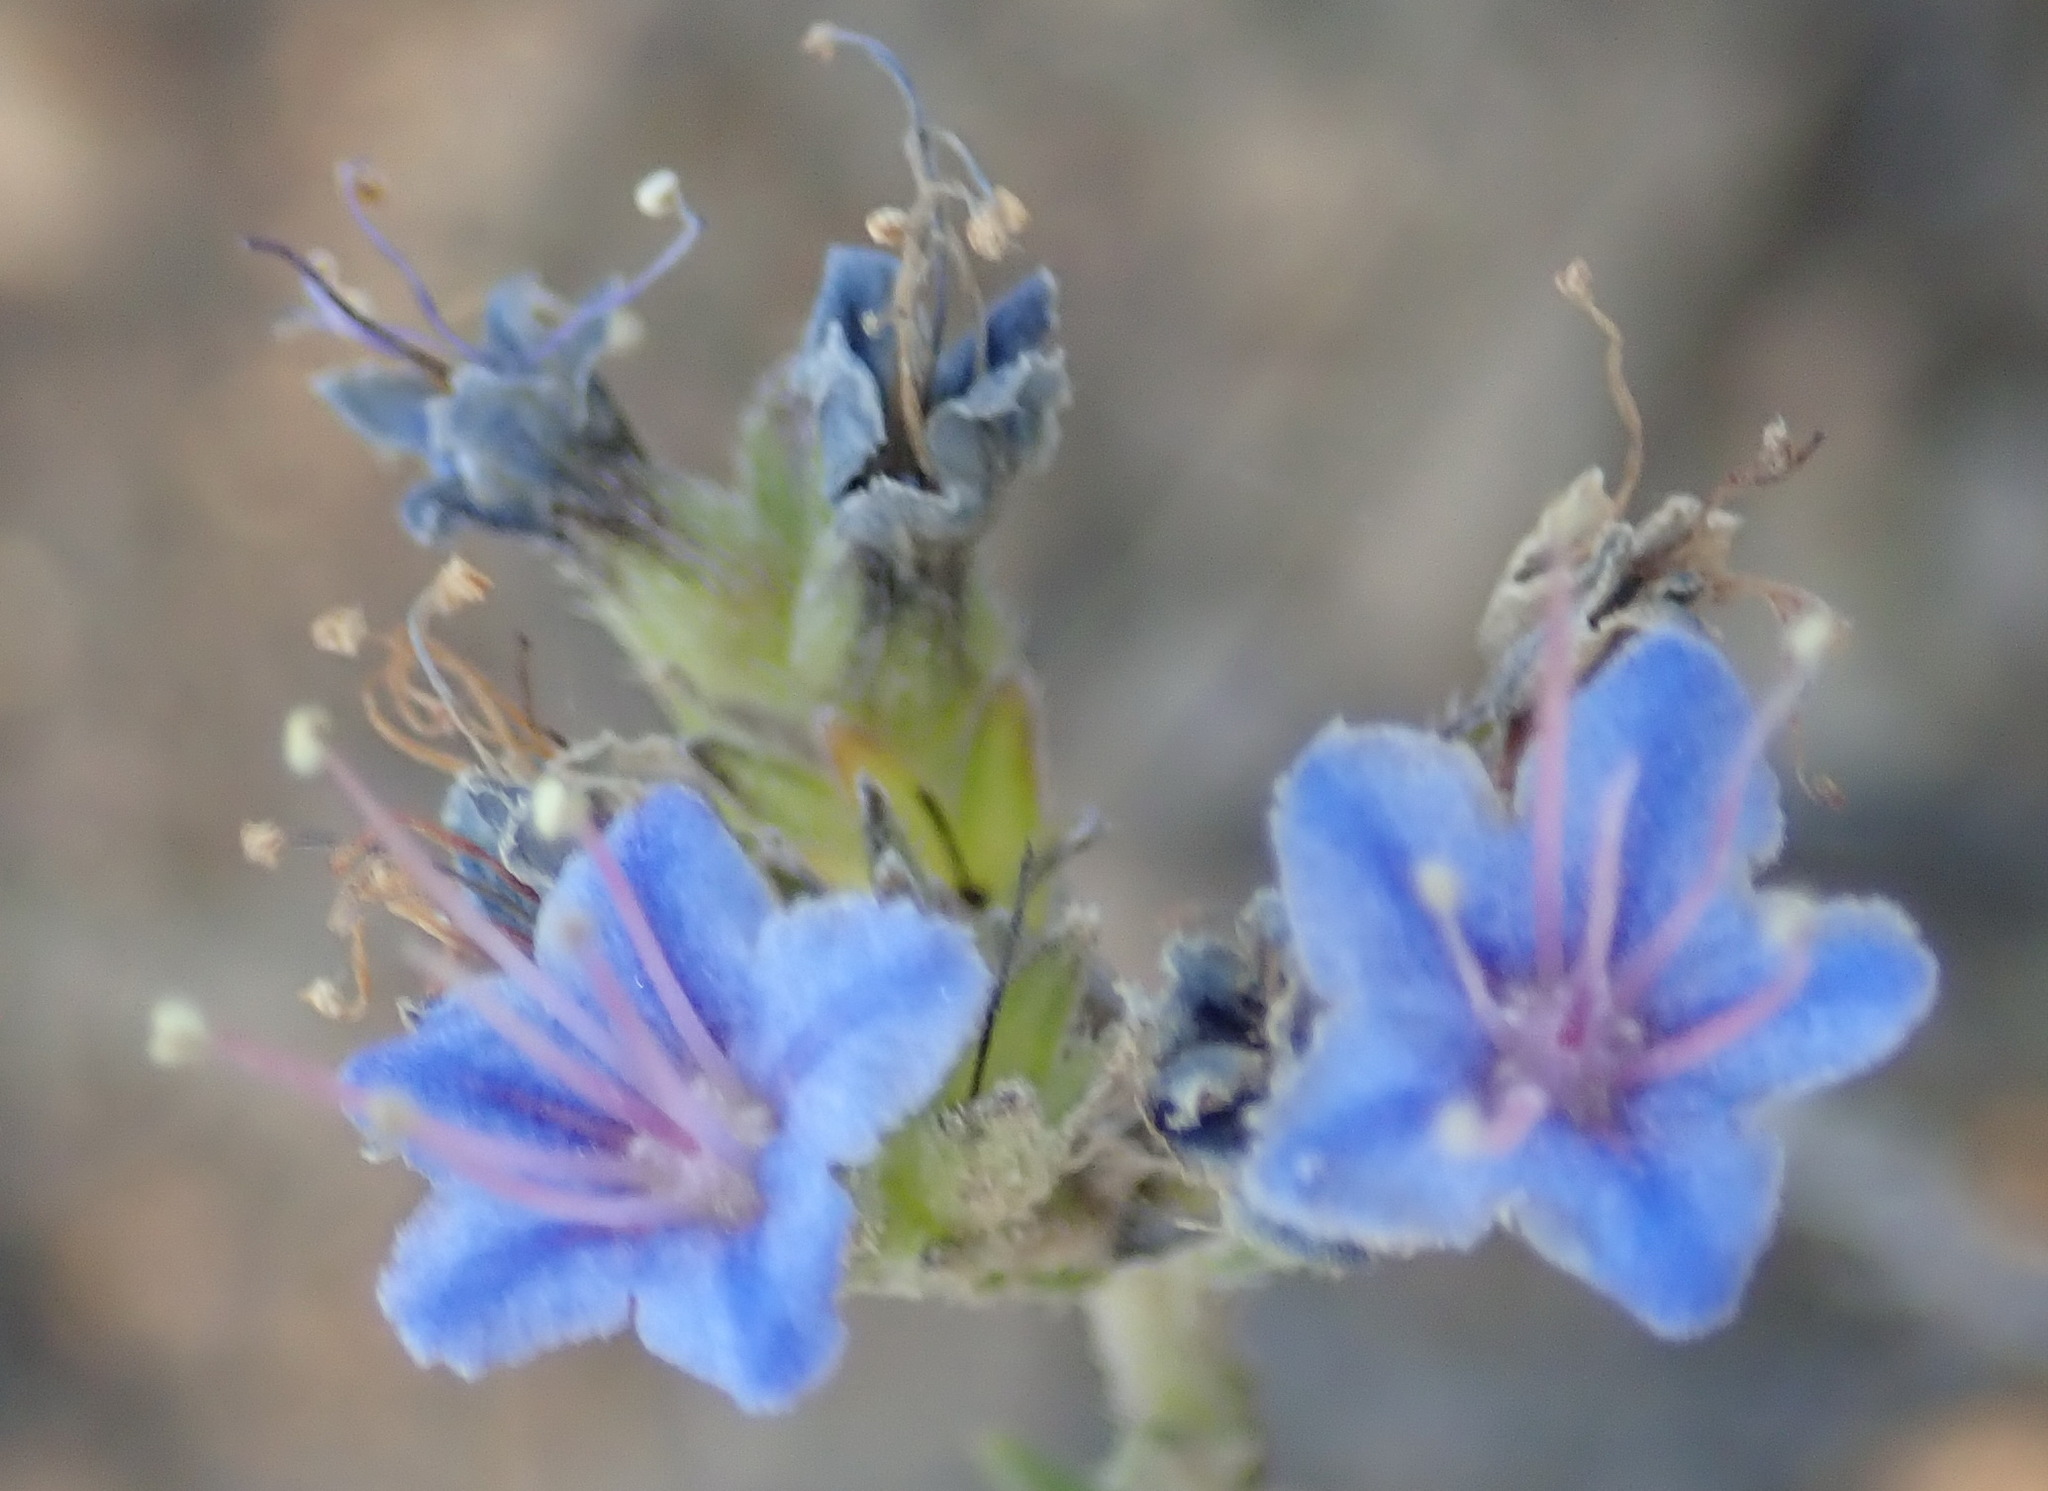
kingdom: Plantae
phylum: Tracheophyta
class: Magnoliopsida
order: Boraginales
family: Boraginaceae
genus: Lobostemon
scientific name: Lobostemon echioides
